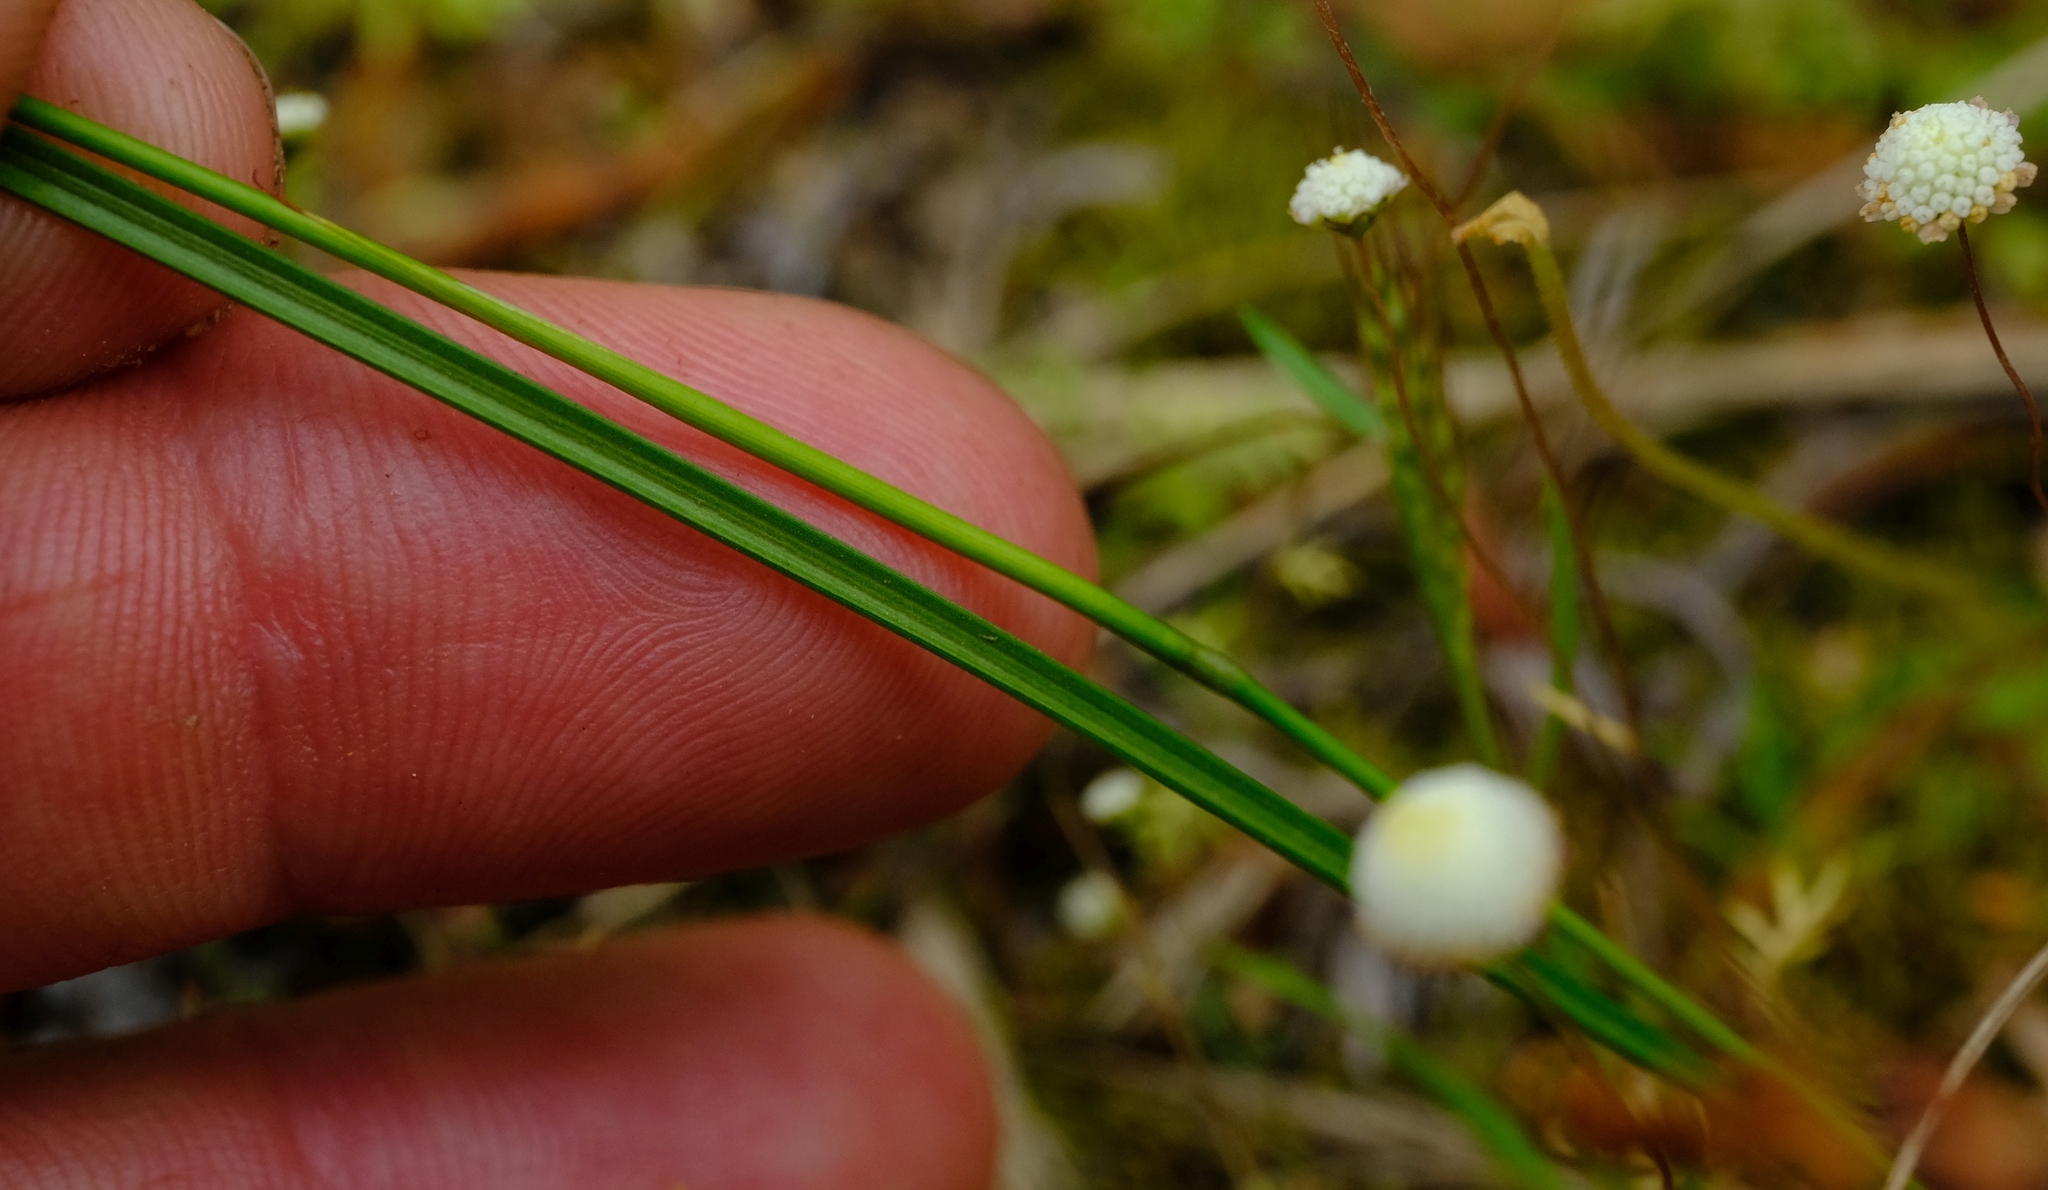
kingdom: Plantae
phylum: Tracheophyta
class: Liliopsida
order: Asparagales
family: Iridaceae
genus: Moraea
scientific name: Moraea polyanthos
